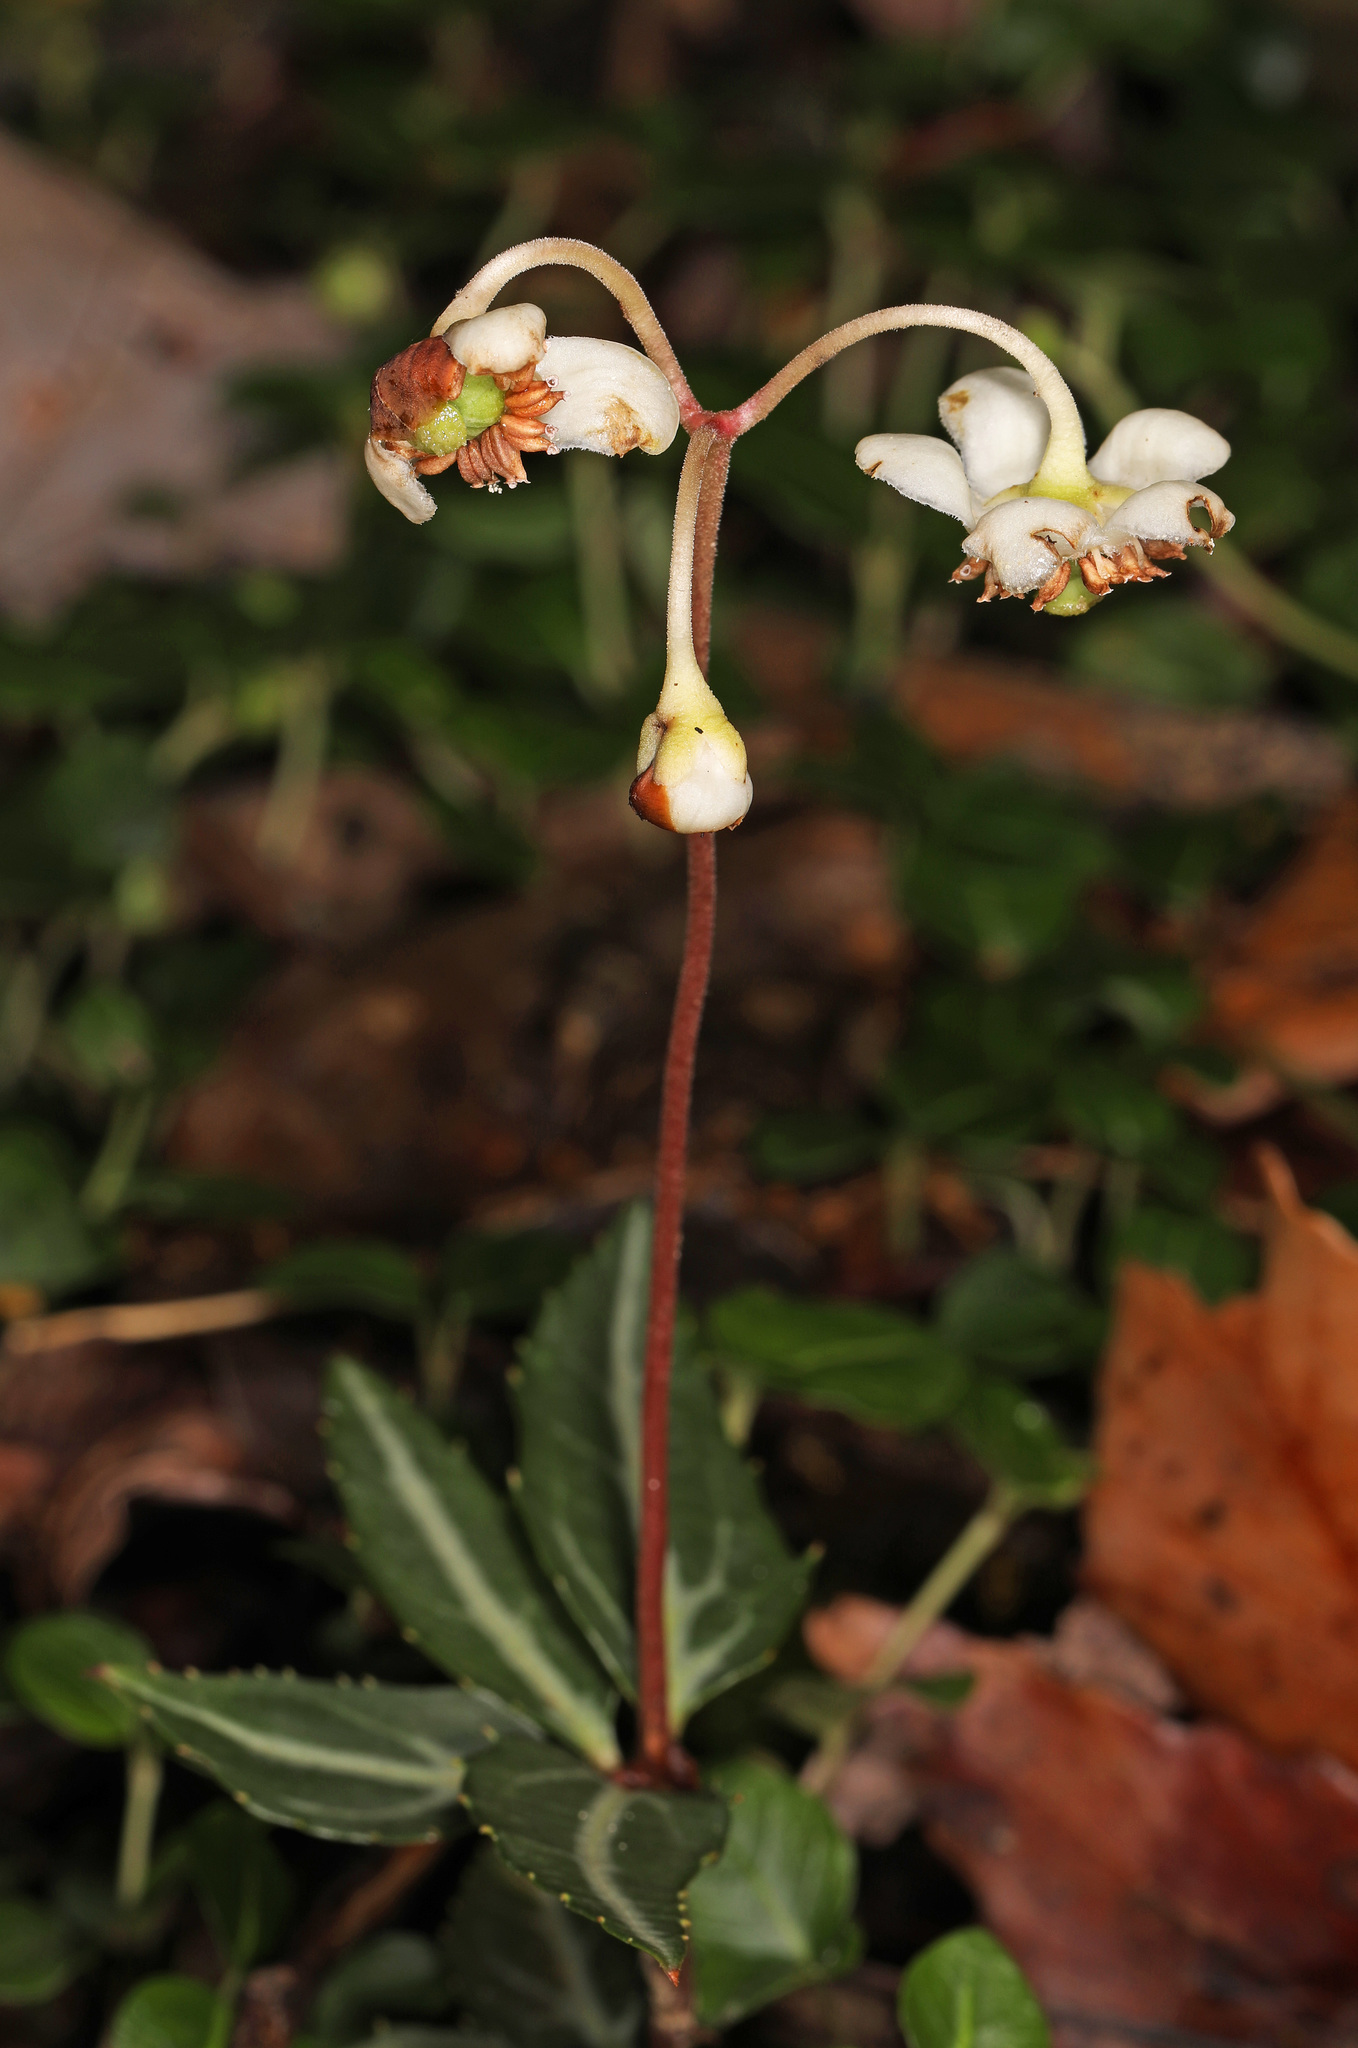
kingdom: Plantae
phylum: Tracheophyta
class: Magnoliopsida
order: Ericales
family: Ericaceae
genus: Chimaphila
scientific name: Chimaphila maculata
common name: Spotted pipsissewa
